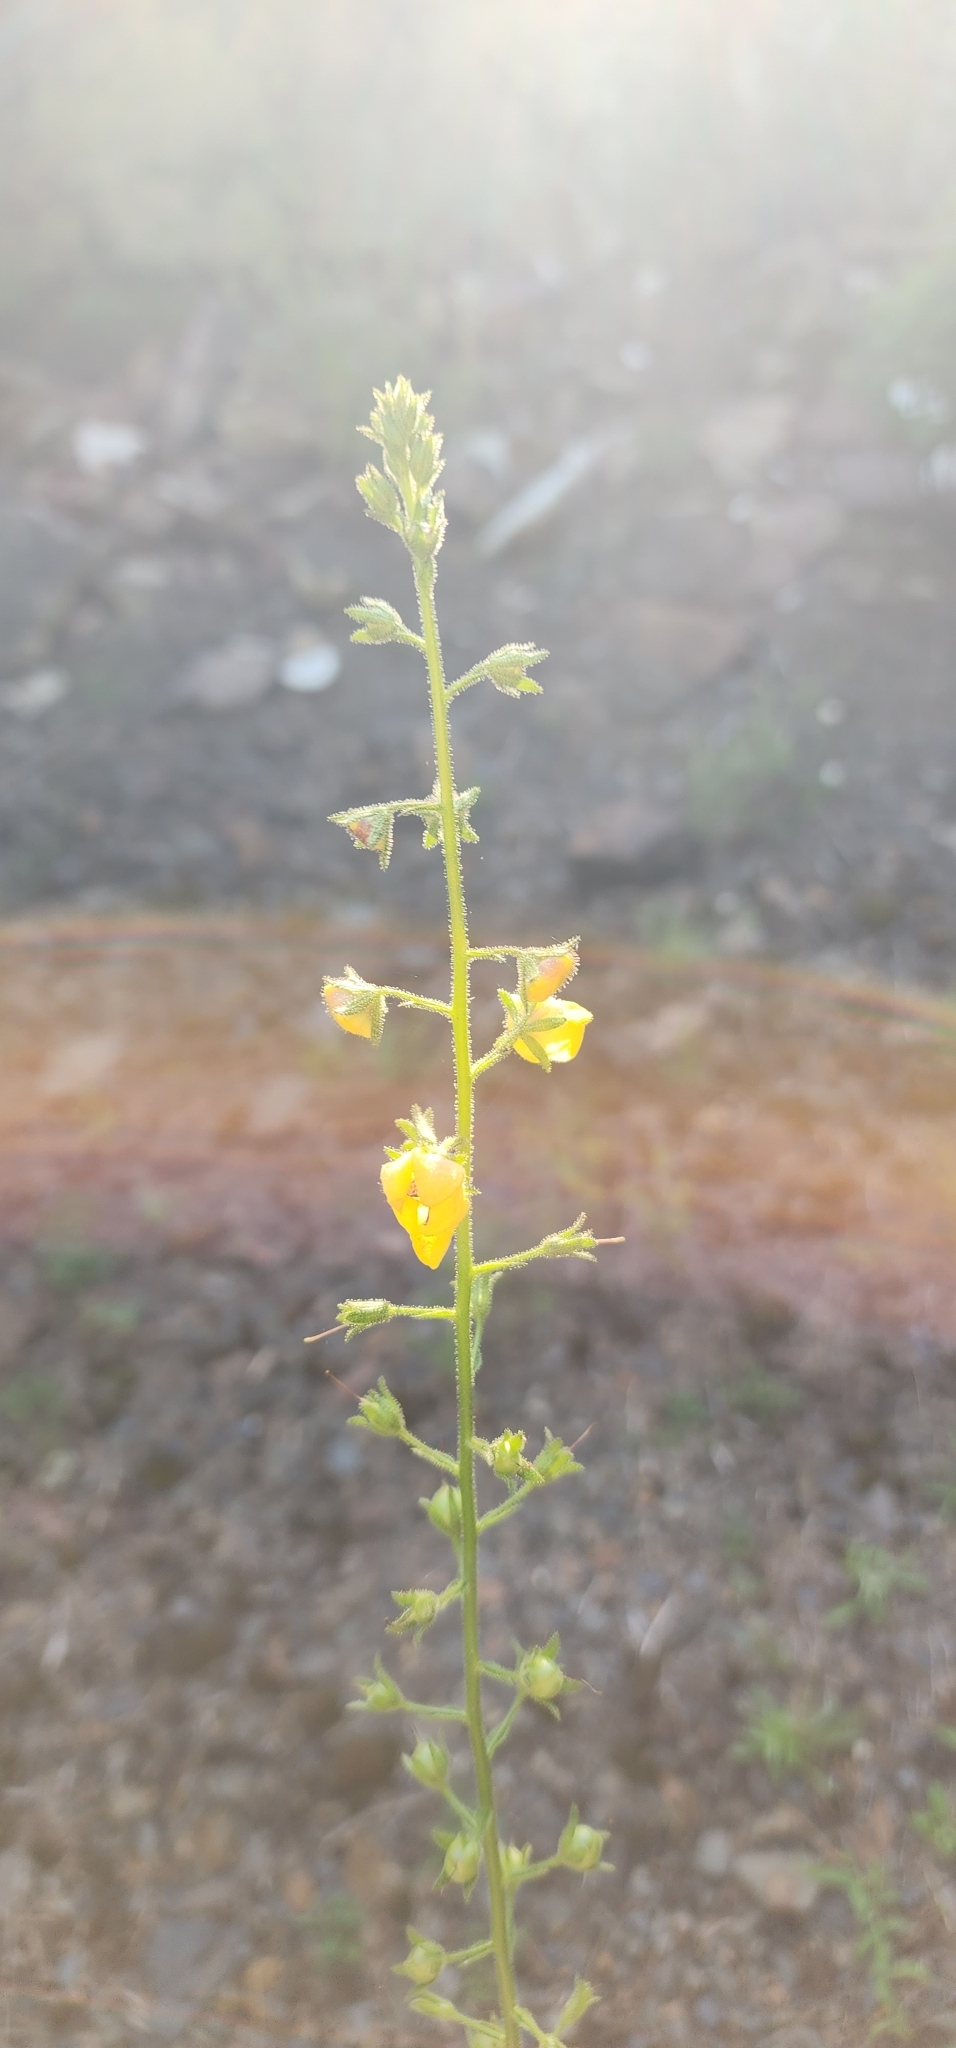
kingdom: Plantae
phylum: Tracheophyta
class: Magnoliopsida
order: Lamiales
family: Scrophulariaceae
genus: Verbascum
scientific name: Verbascum blattaria
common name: Moth mullein
